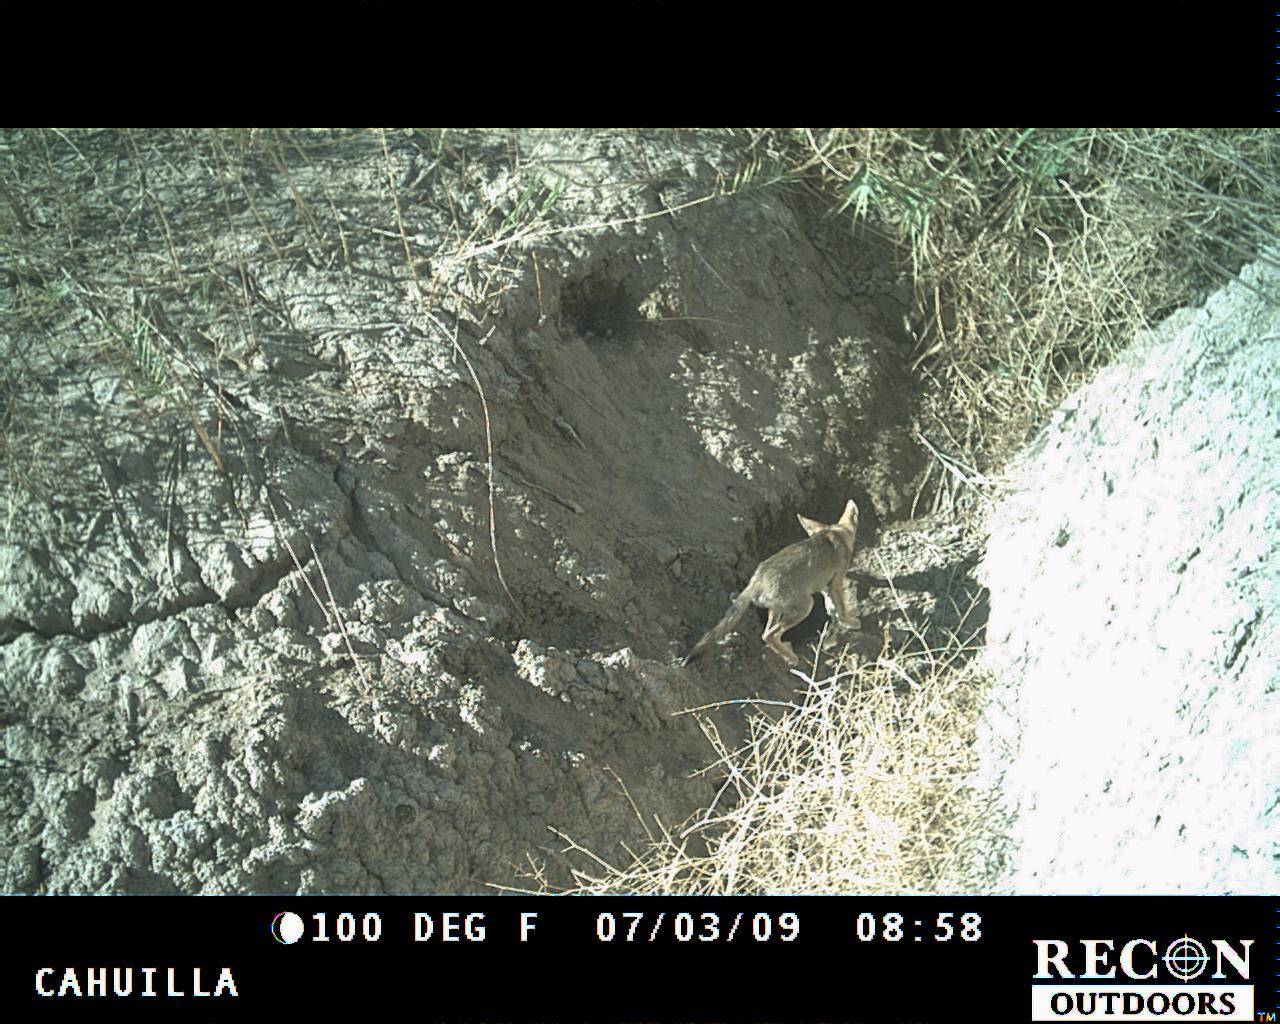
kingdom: Animalia
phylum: Chordata
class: Mammalia
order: Carnivora
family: Canidae
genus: Canis
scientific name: Canis latrans
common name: Coyote
